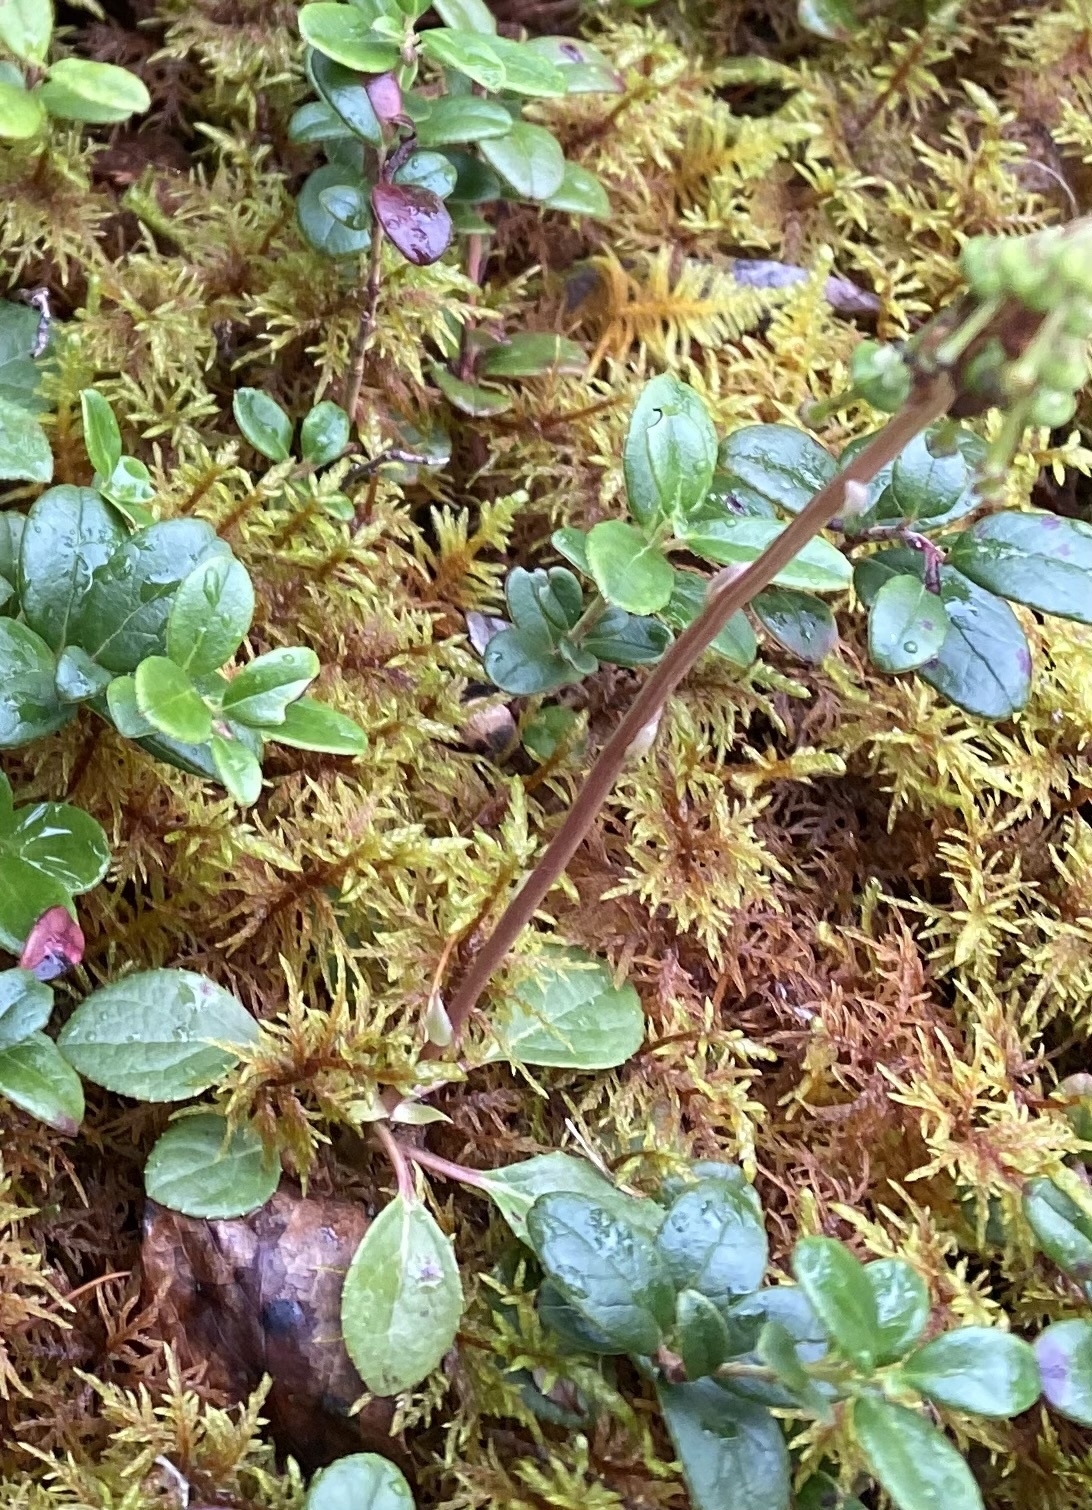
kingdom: Plantae
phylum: Tracheophyta
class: Magnoliopsida
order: Ericales
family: Ericaceae
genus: Orthilia
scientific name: Orthilia secunda
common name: One-sided orthilia
